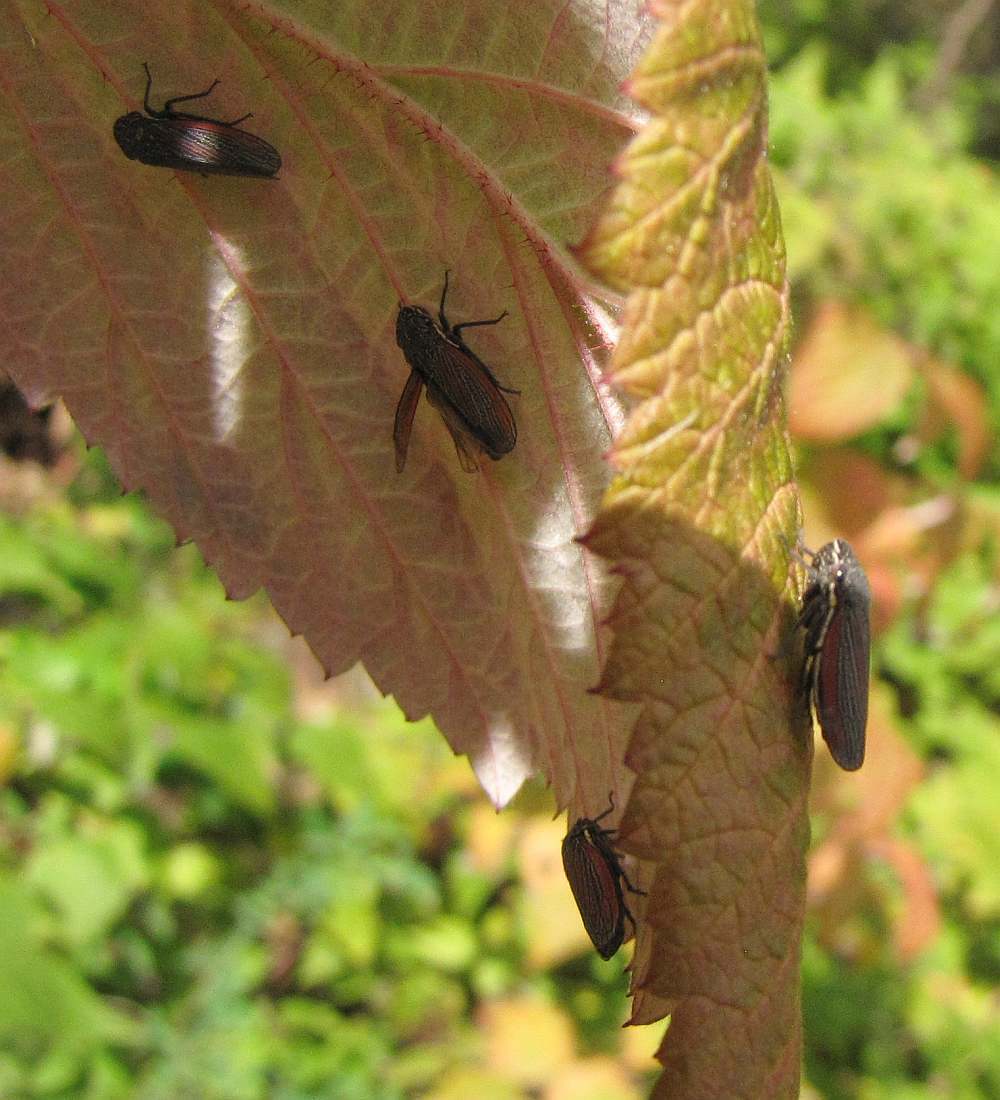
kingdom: Animalia
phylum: Arthropoda
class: Insecta
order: Hemiptera
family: Cicadellidae
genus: Cuerna
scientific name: Cuerna striata
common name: Striped leafhopper
